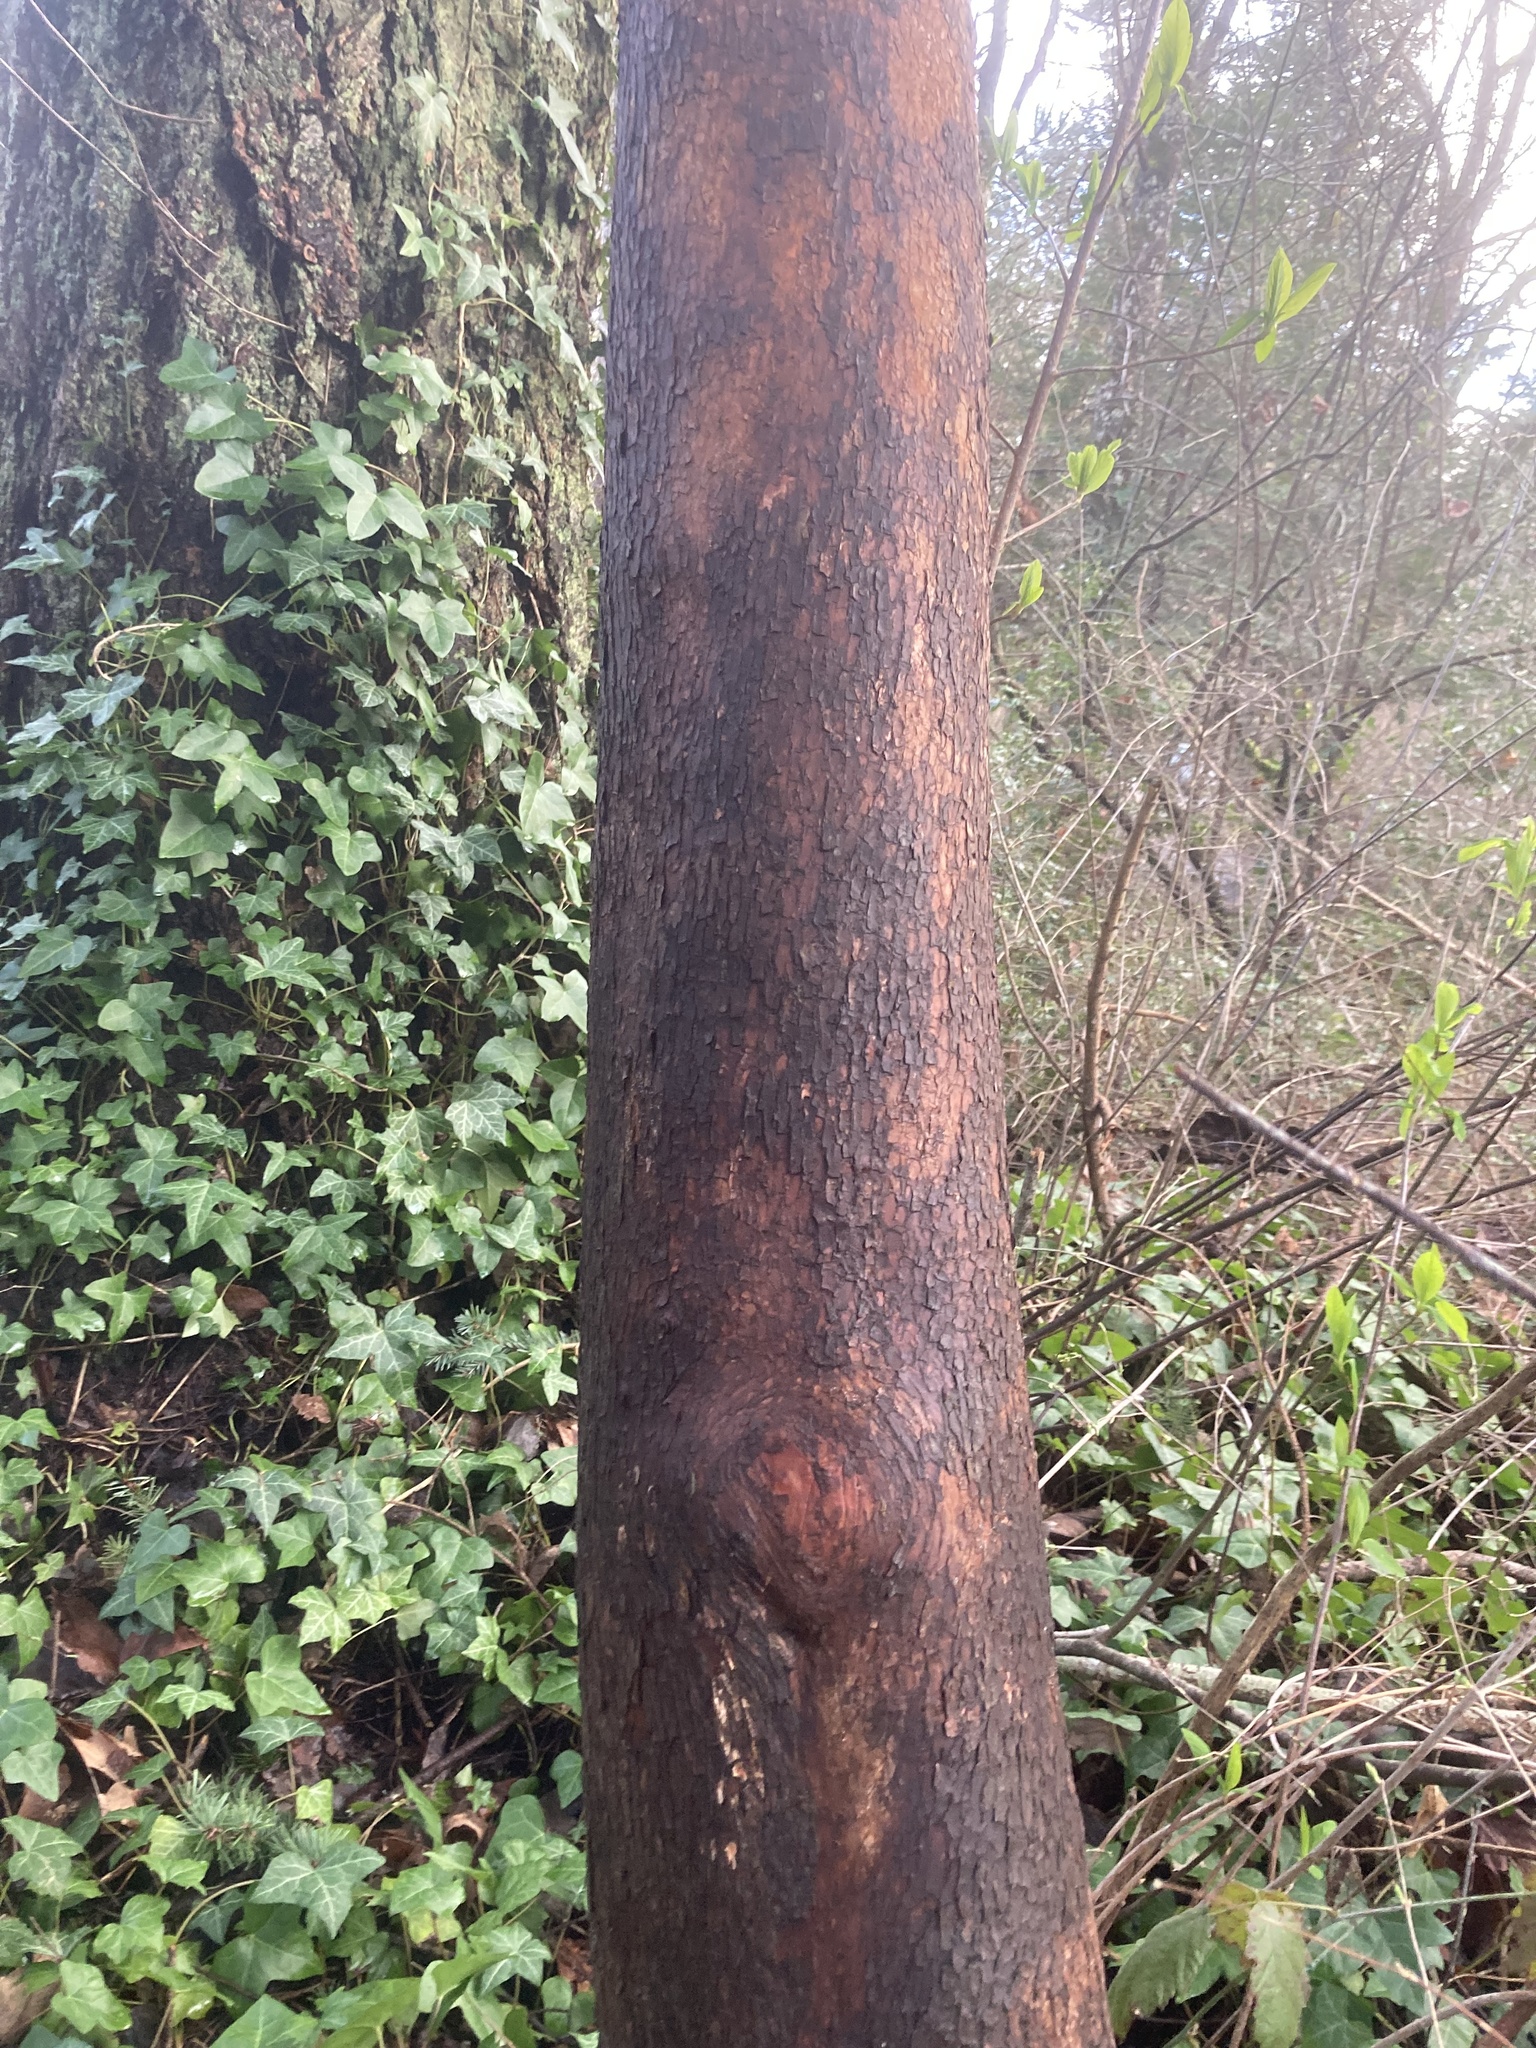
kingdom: Plantae
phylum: Tracheophyta
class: Magnoliopsida
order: Ericales
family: Ericaceae
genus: Arbutus
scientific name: Arbutus menziesii
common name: Pacific madrone
